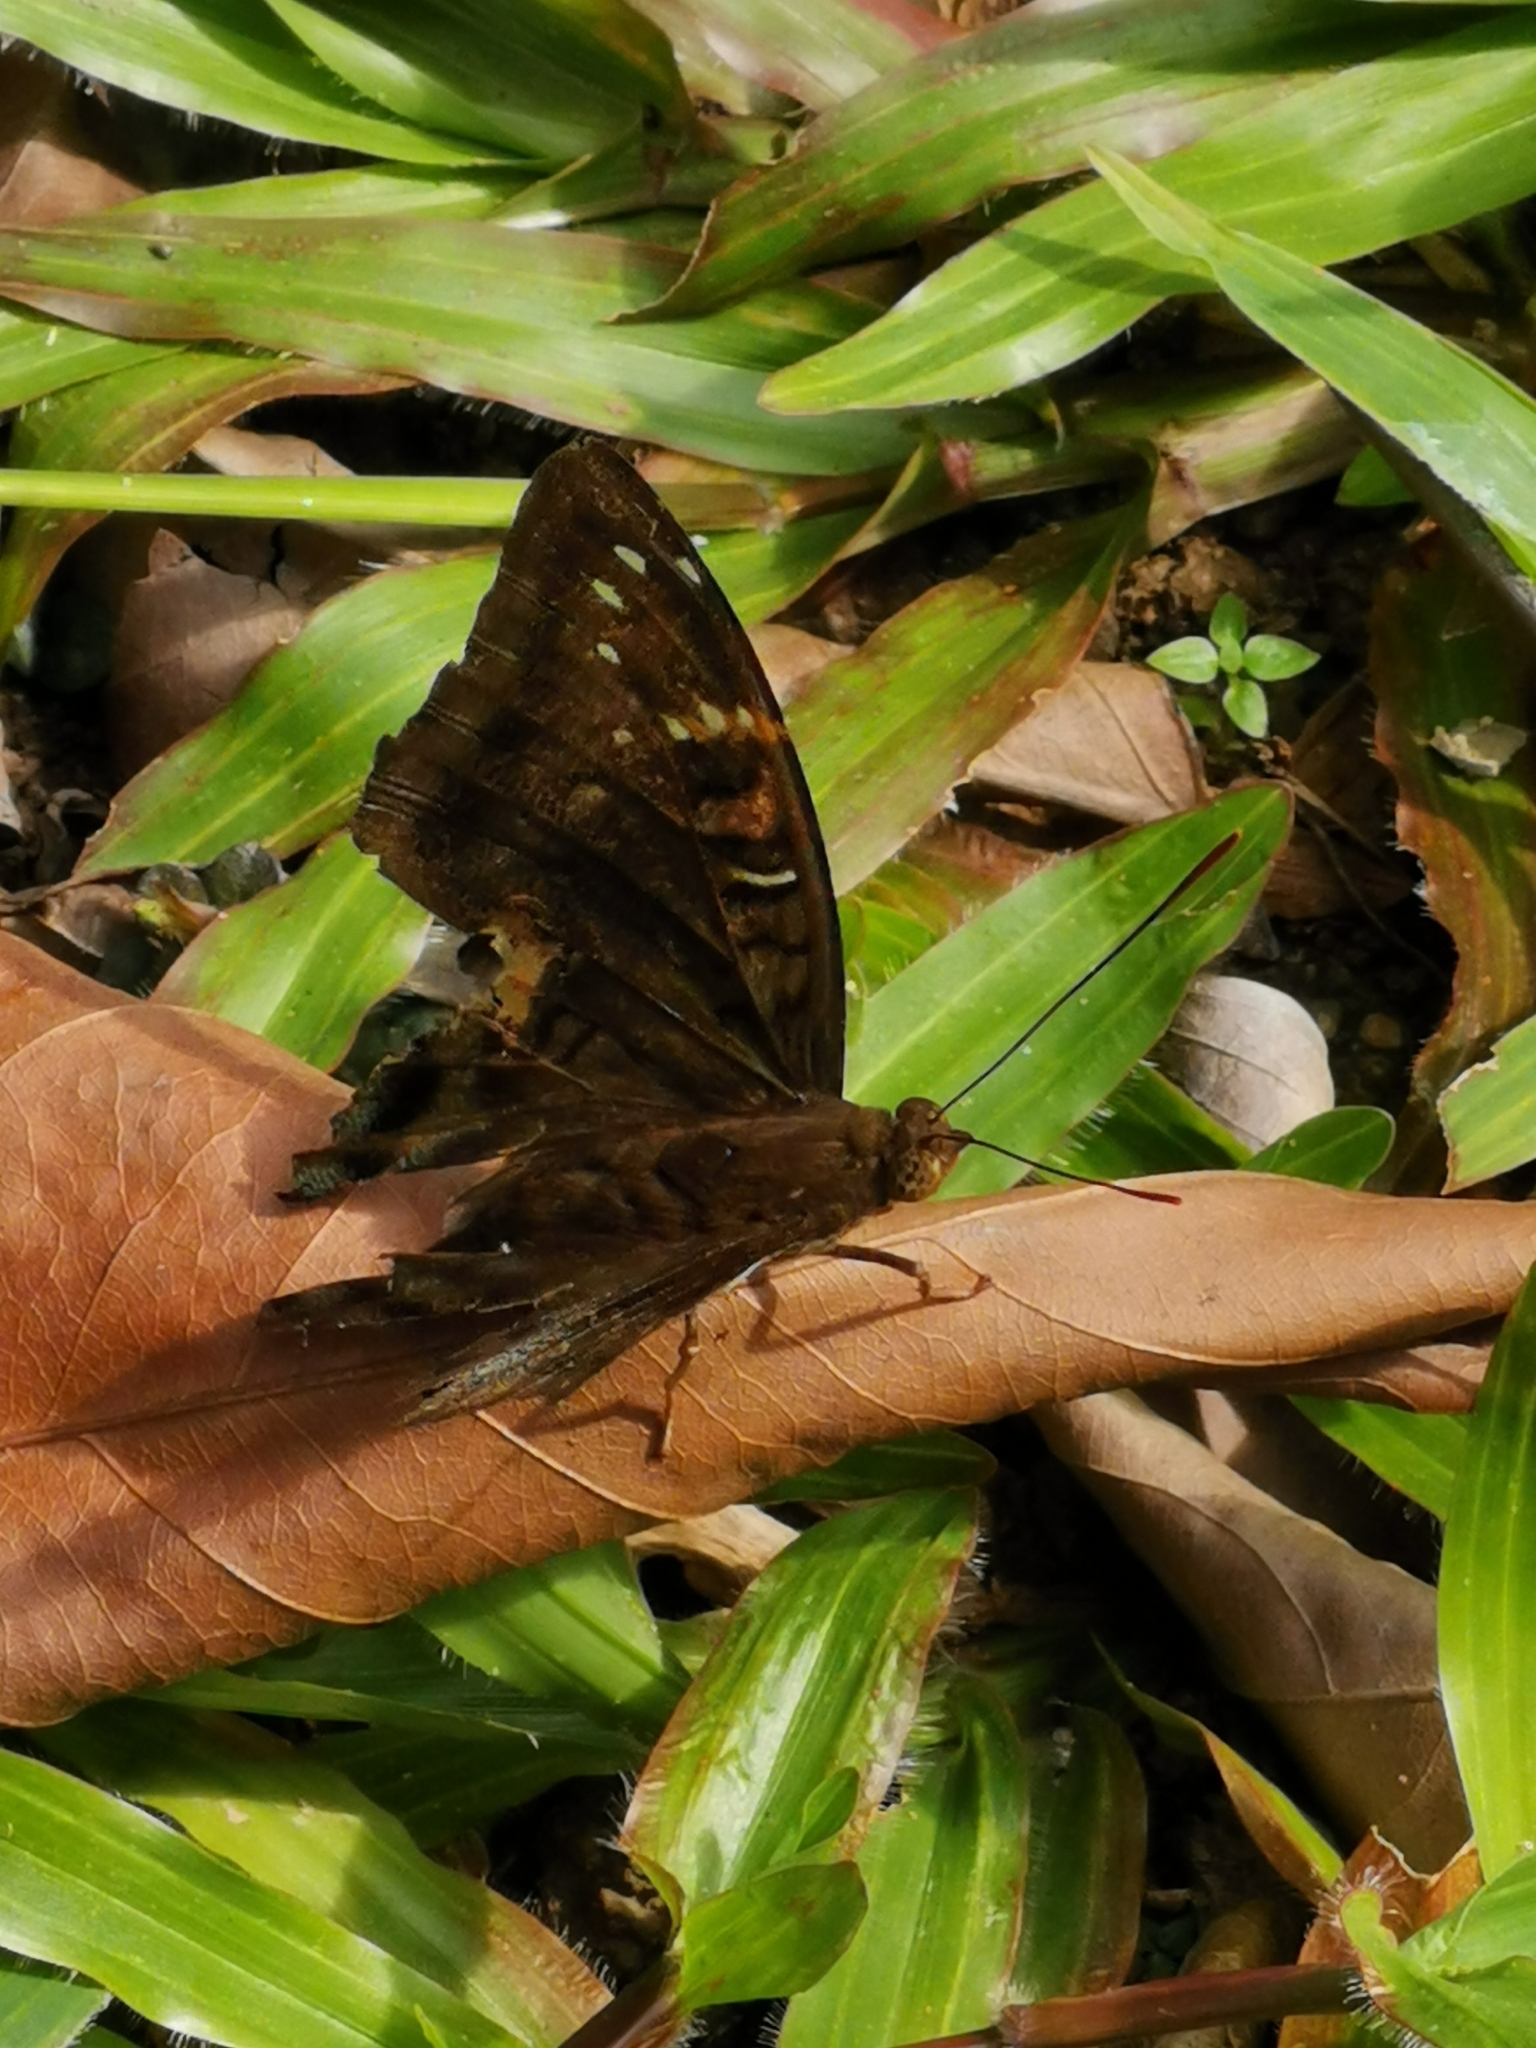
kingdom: Animalia
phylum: Arthropoda
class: Insecta
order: Lepidoptera
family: Nymphalidae
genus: Euthalia
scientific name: Euthalia adonia
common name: Green baron
